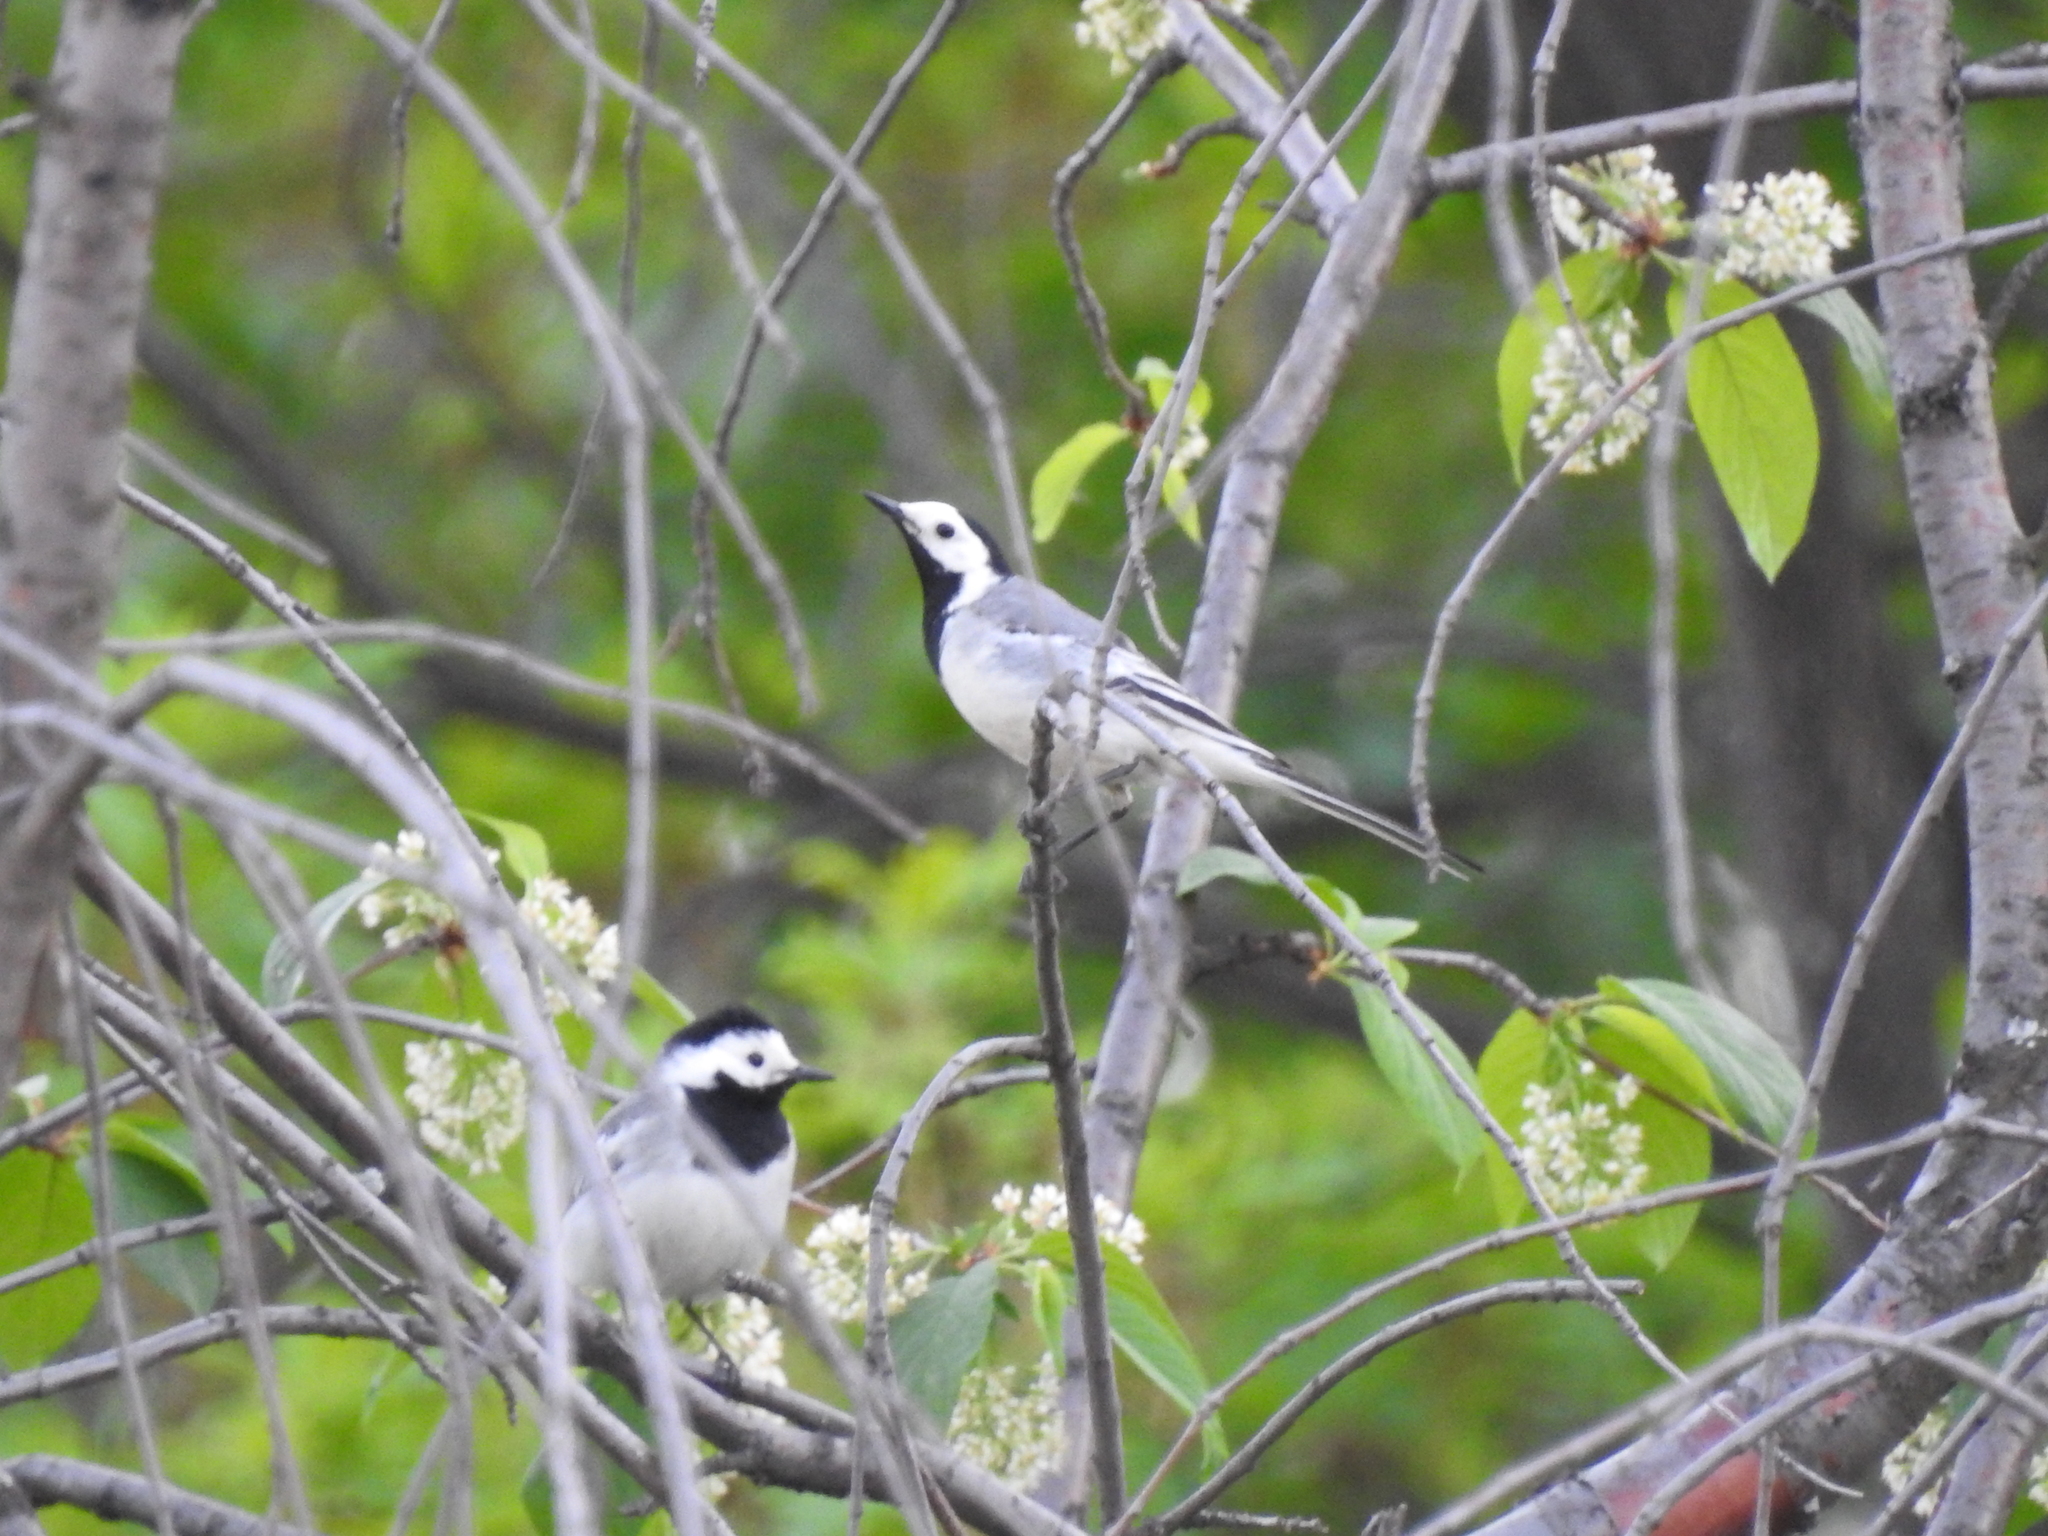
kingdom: Animalia
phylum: Chordata
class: Aves
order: Passeriformes
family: Motacillidae
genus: Motacilla
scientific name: Motacilla alba
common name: White wagtail
